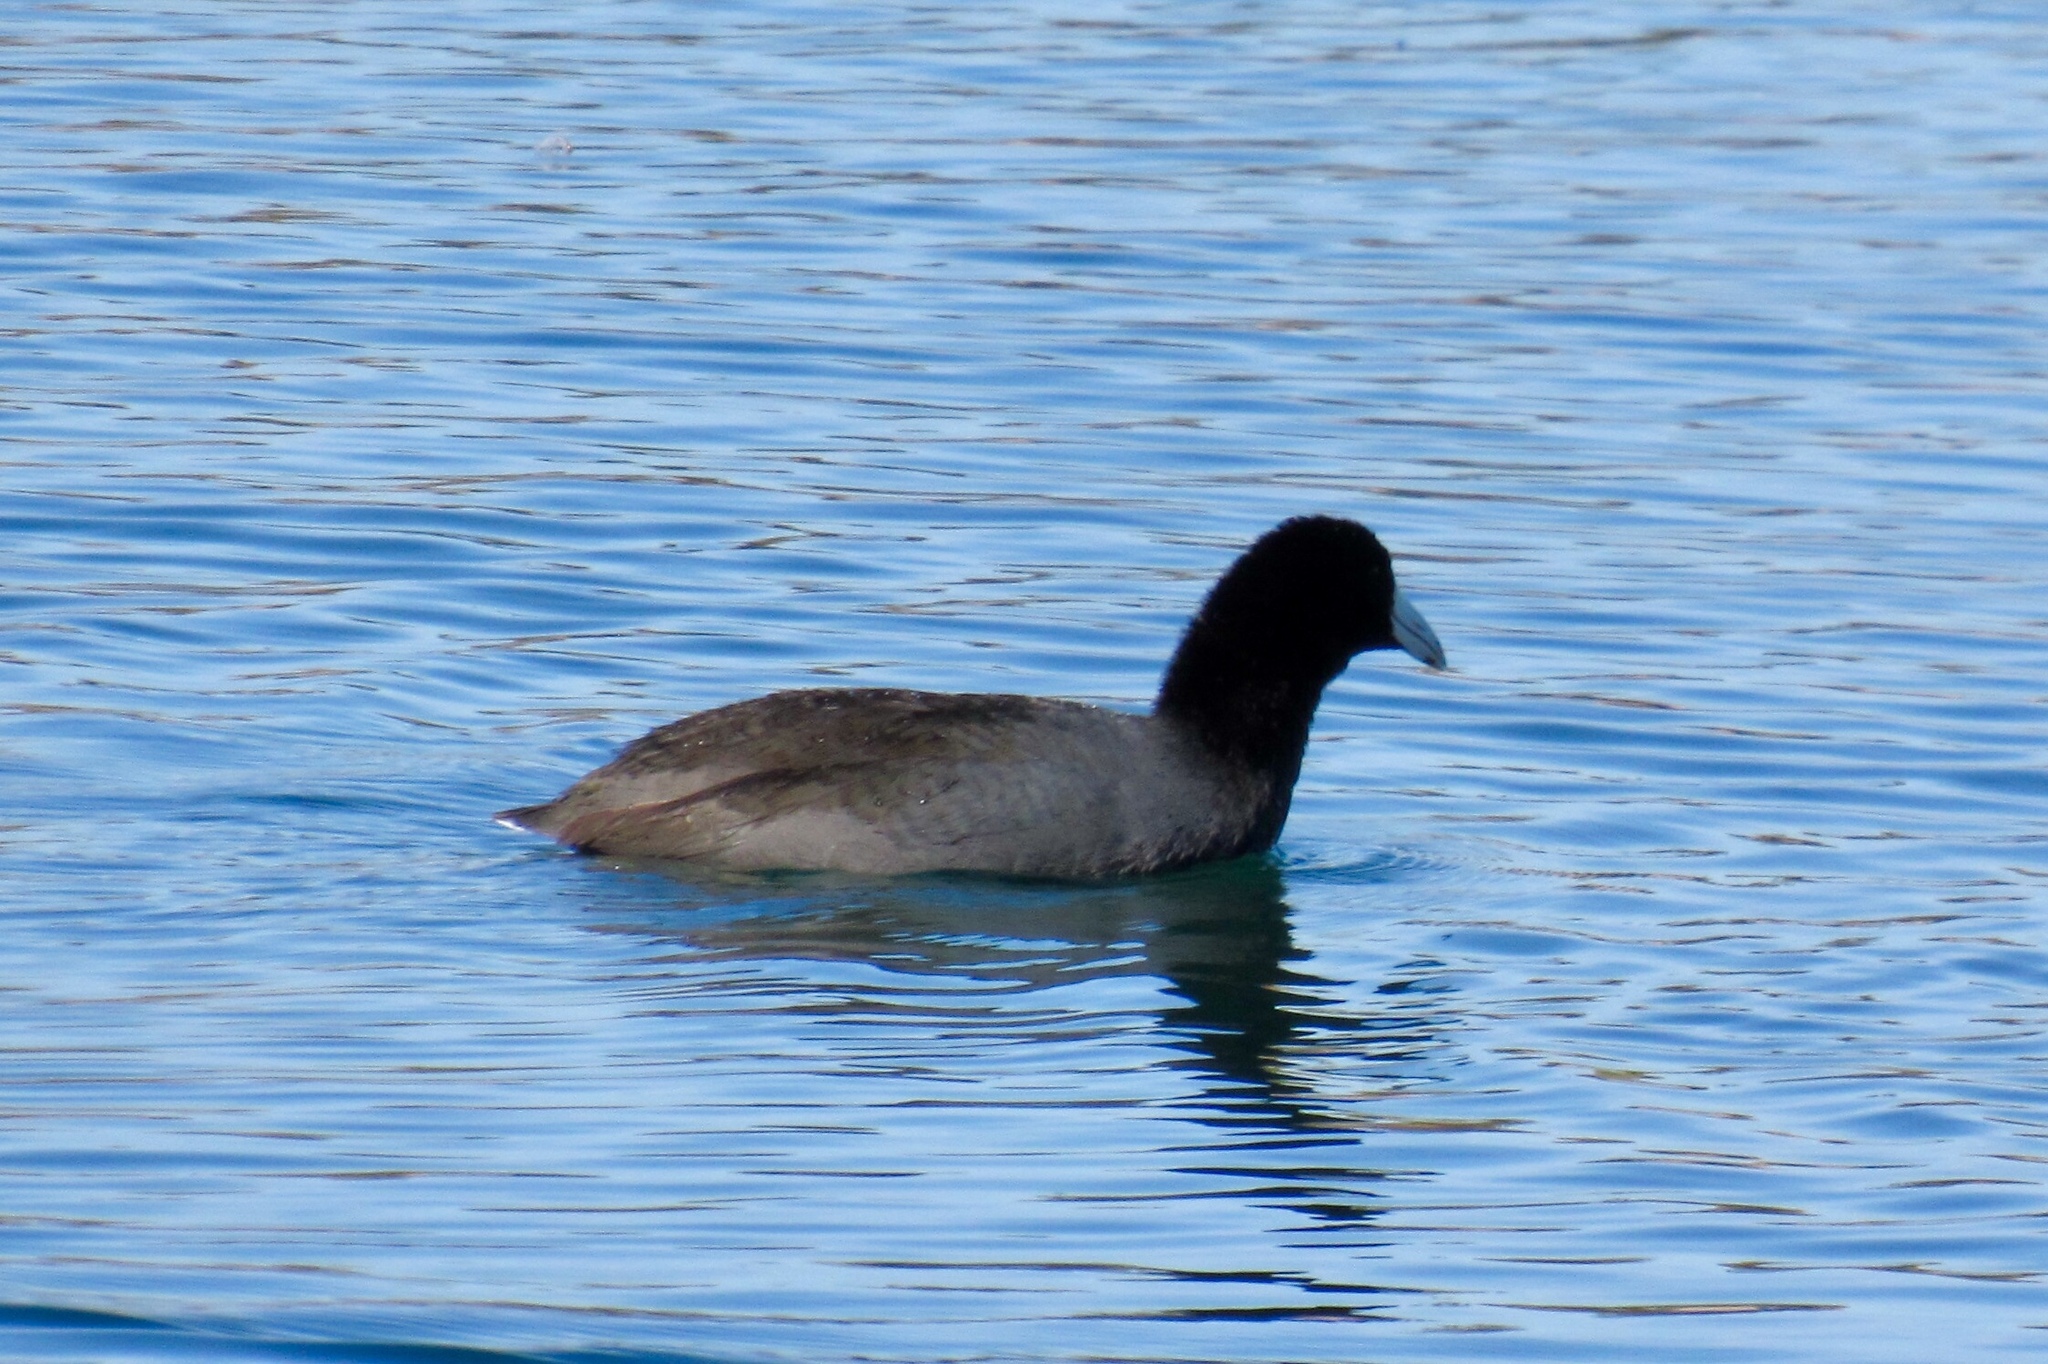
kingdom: Animalia
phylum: Chordata
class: Aves
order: Gruiformes
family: Rallidae
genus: Fulica
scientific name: Fulica americana
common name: American coot
